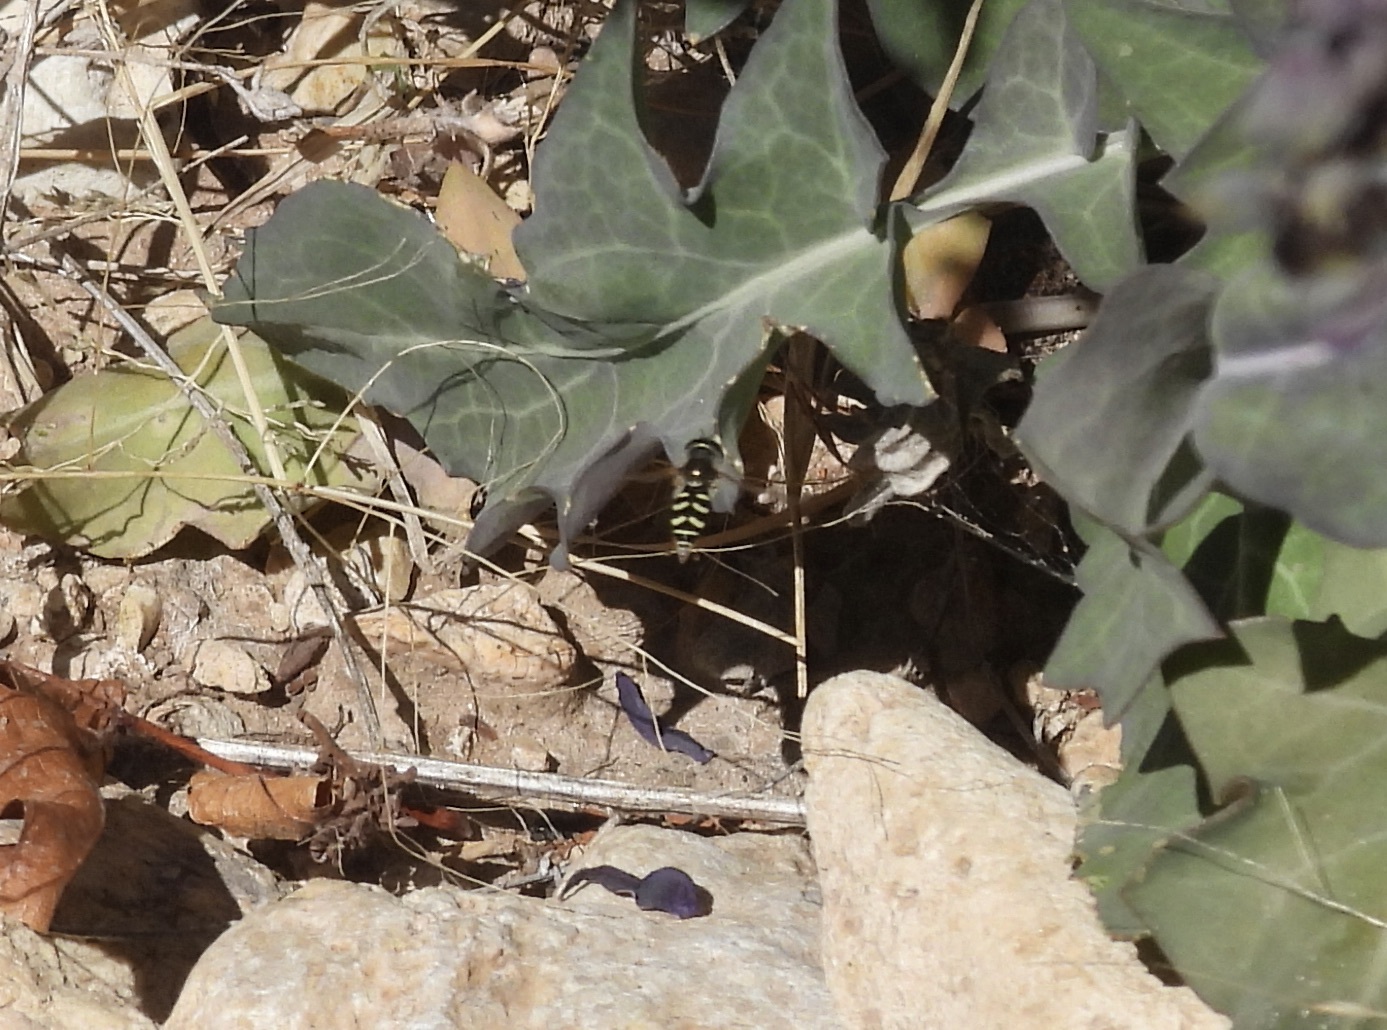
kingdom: Animalia
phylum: Arthropoda
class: Insecta
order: Diptera
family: Syrphidae
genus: Eupeodes
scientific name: Eupeodes volucris
